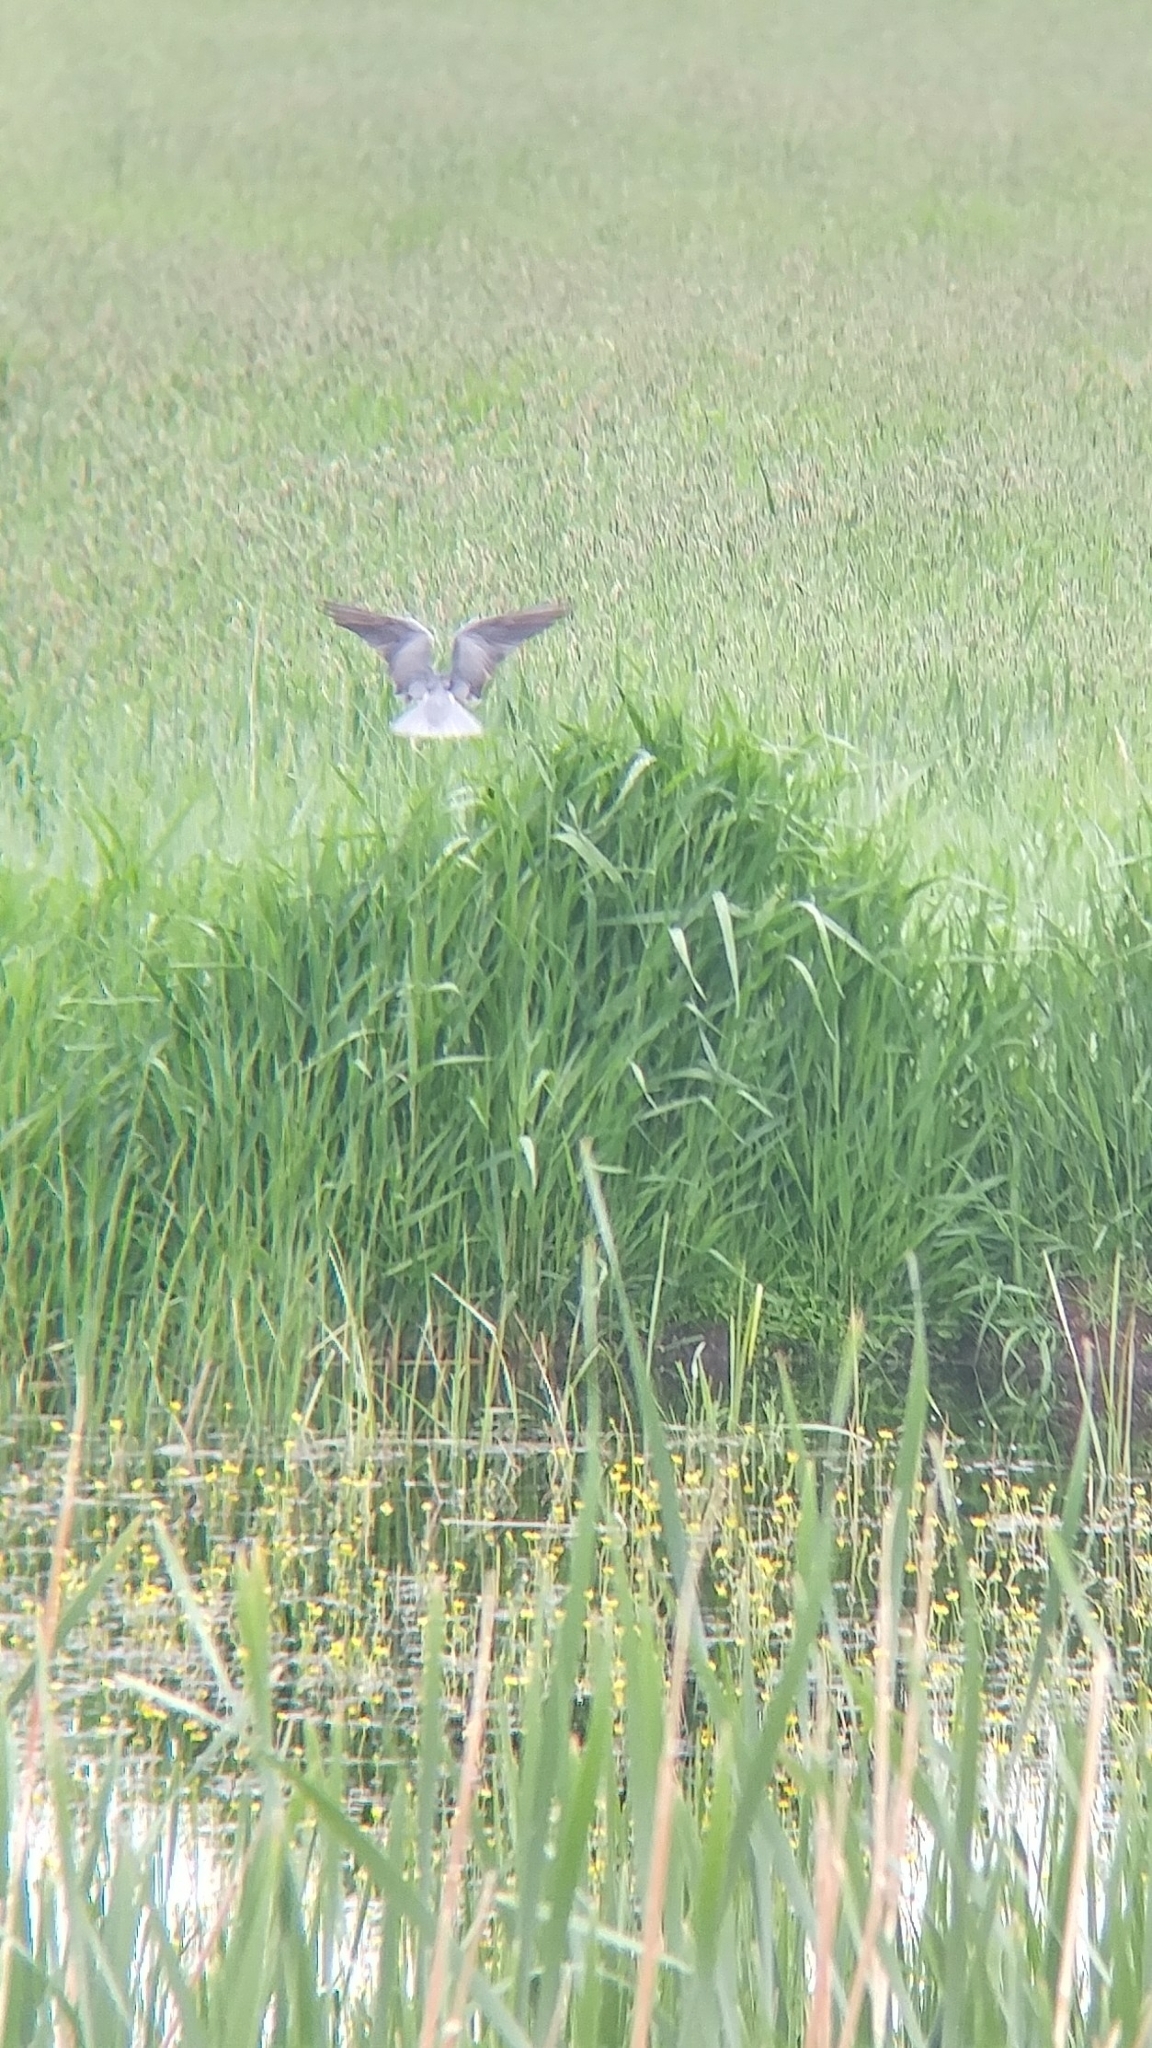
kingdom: Animalia
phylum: Chordata
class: Aves
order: Charadriiformes
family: Laridae
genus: Chlidonias
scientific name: Chlidonias niger
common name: Black tern
